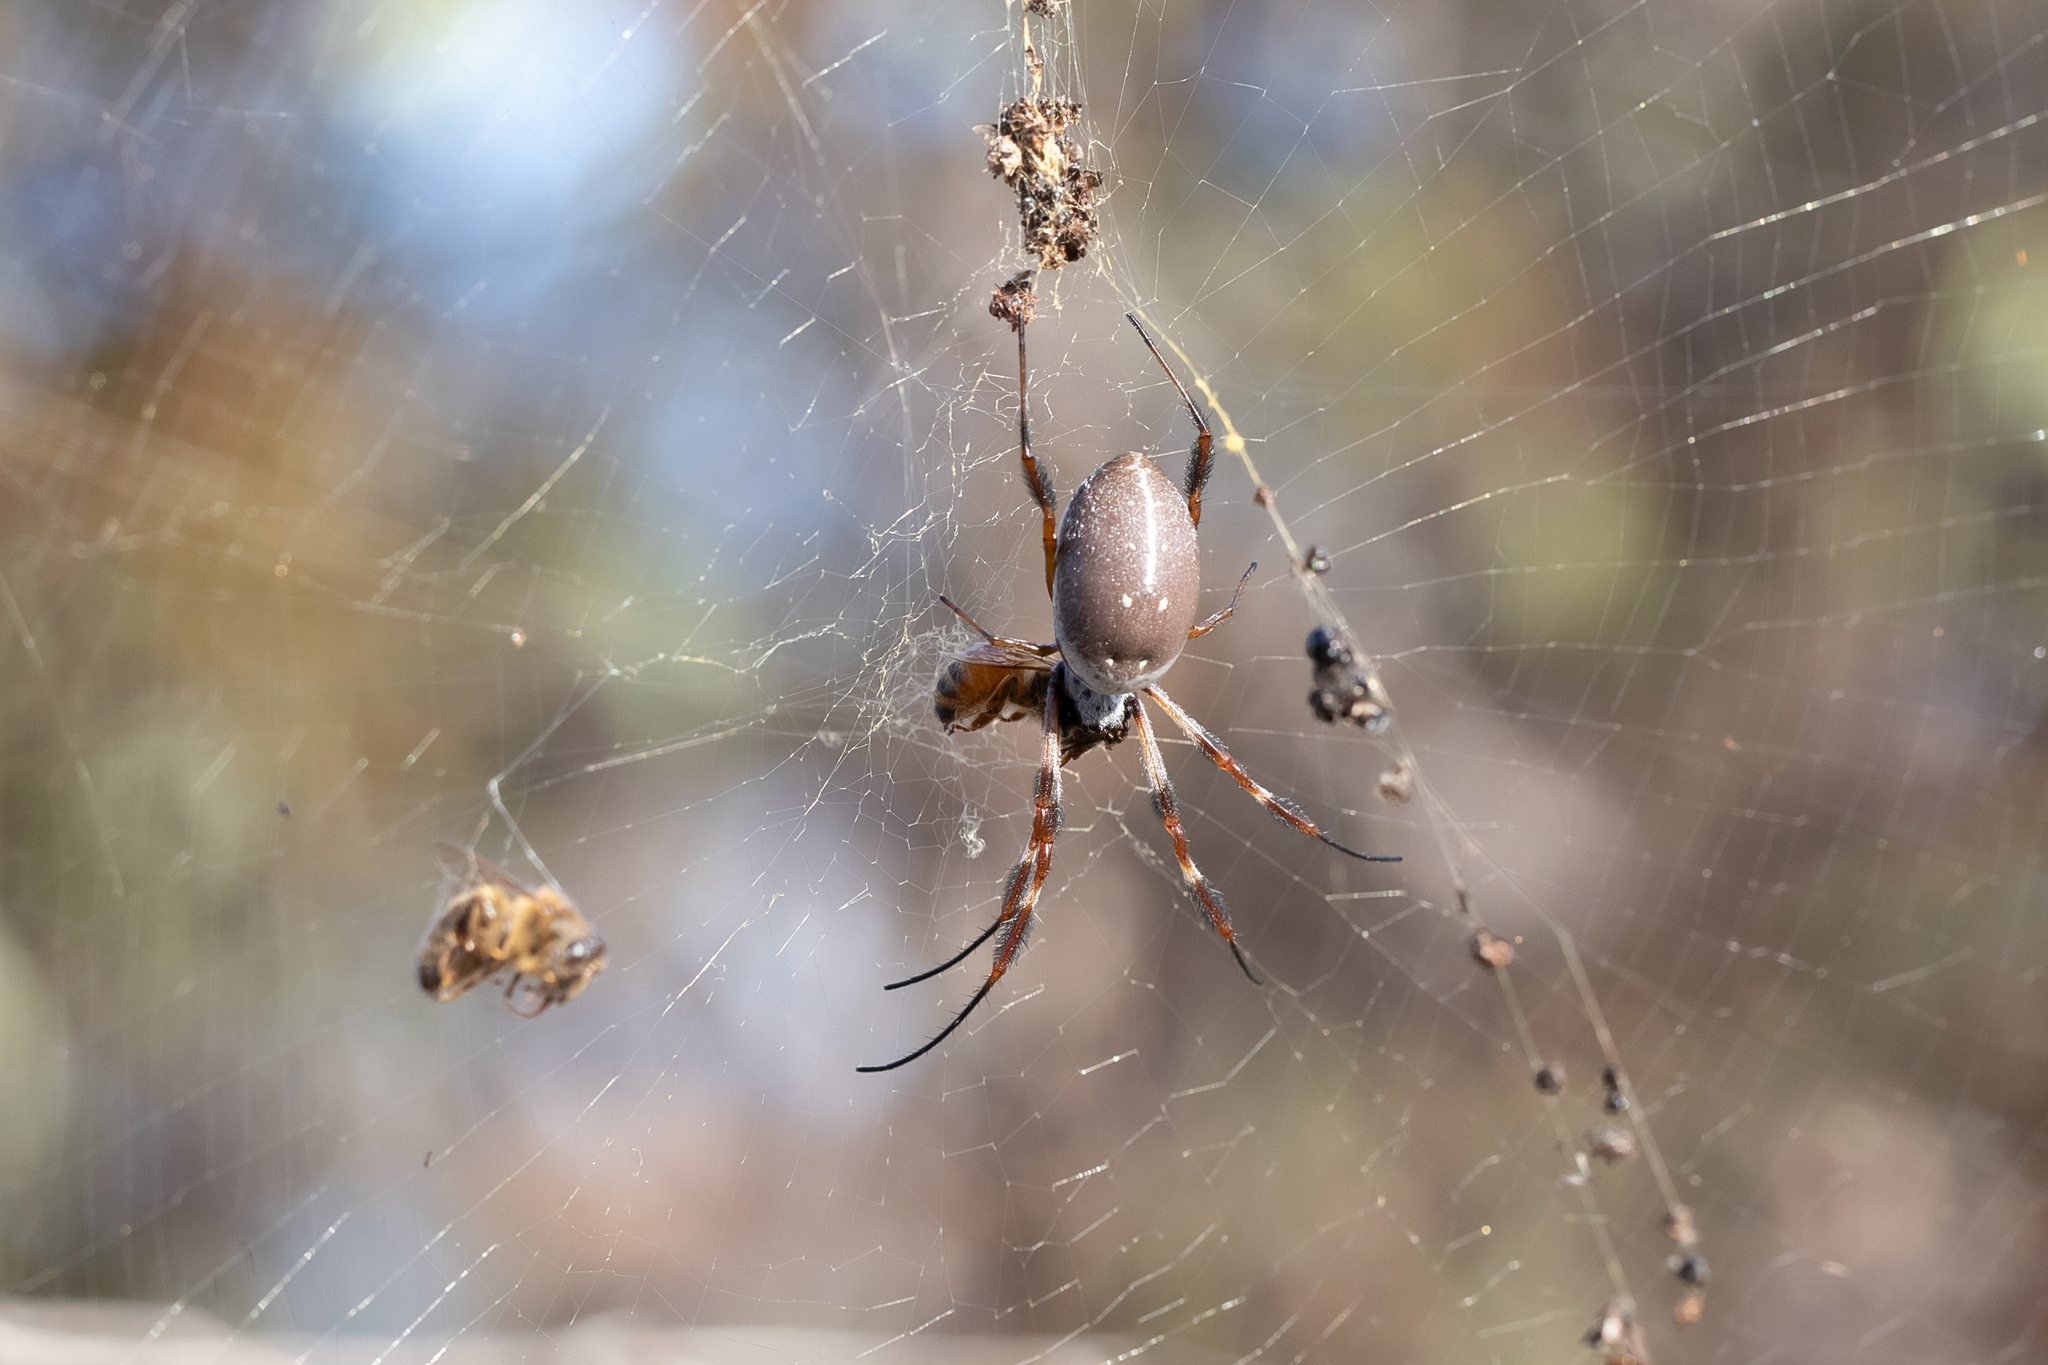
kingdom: Animalia
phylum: Arthropoda
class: Arachnida
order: Araneae
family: Araneidae
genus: Trichonephila
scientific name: Trichonephila edulis
